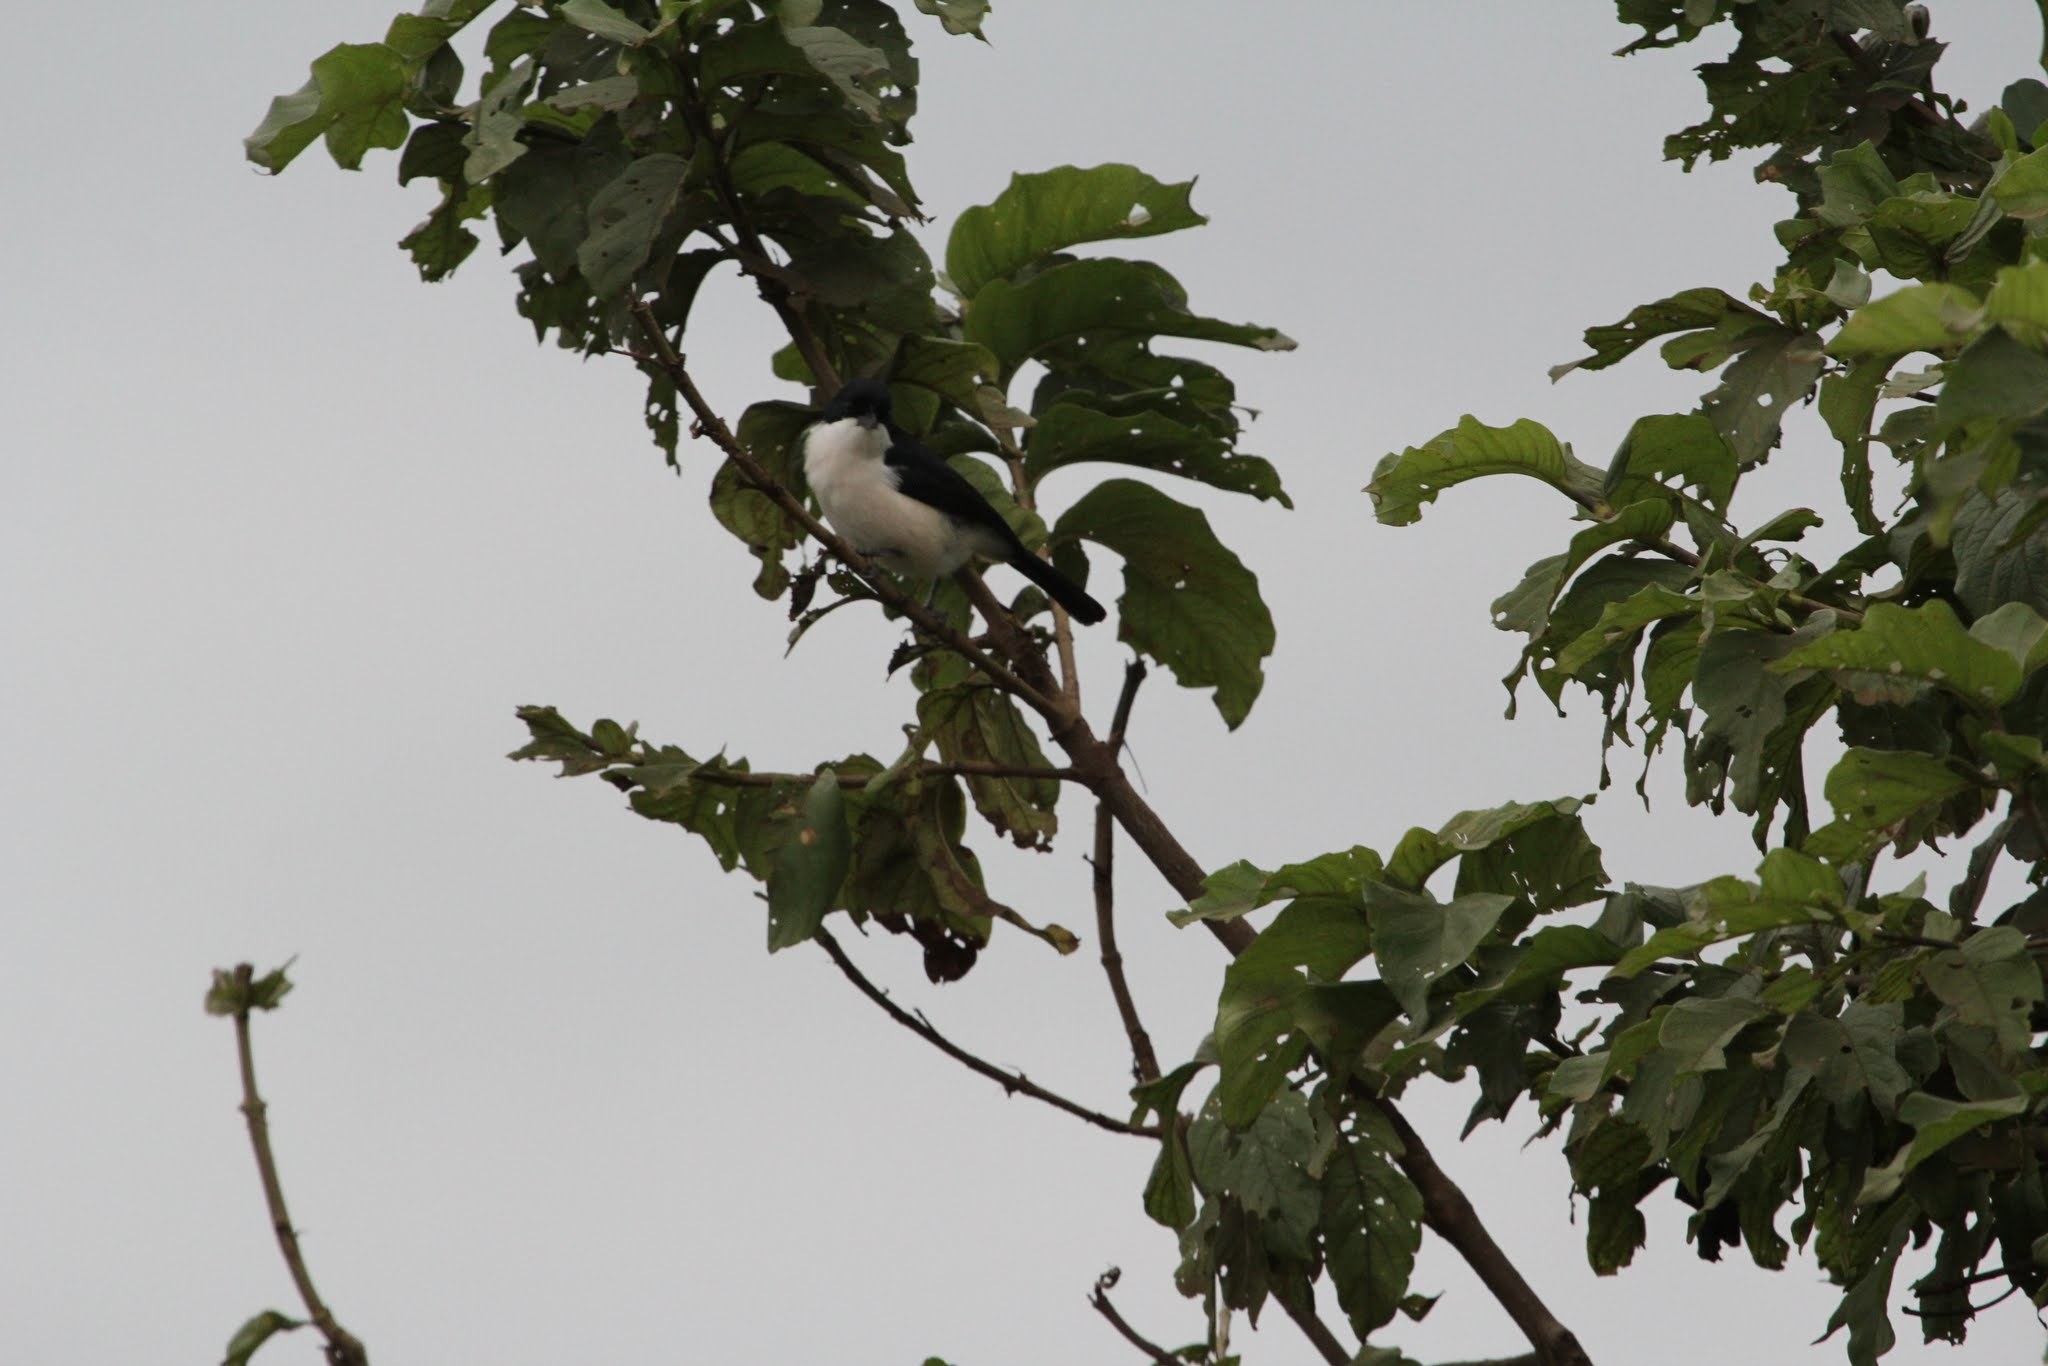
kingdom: Animalia
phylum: Chordata
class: Aves
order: Passeriformes
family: Malaconotidae
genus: Laniarius
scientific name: Laniarius major
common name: Tropical boubou
